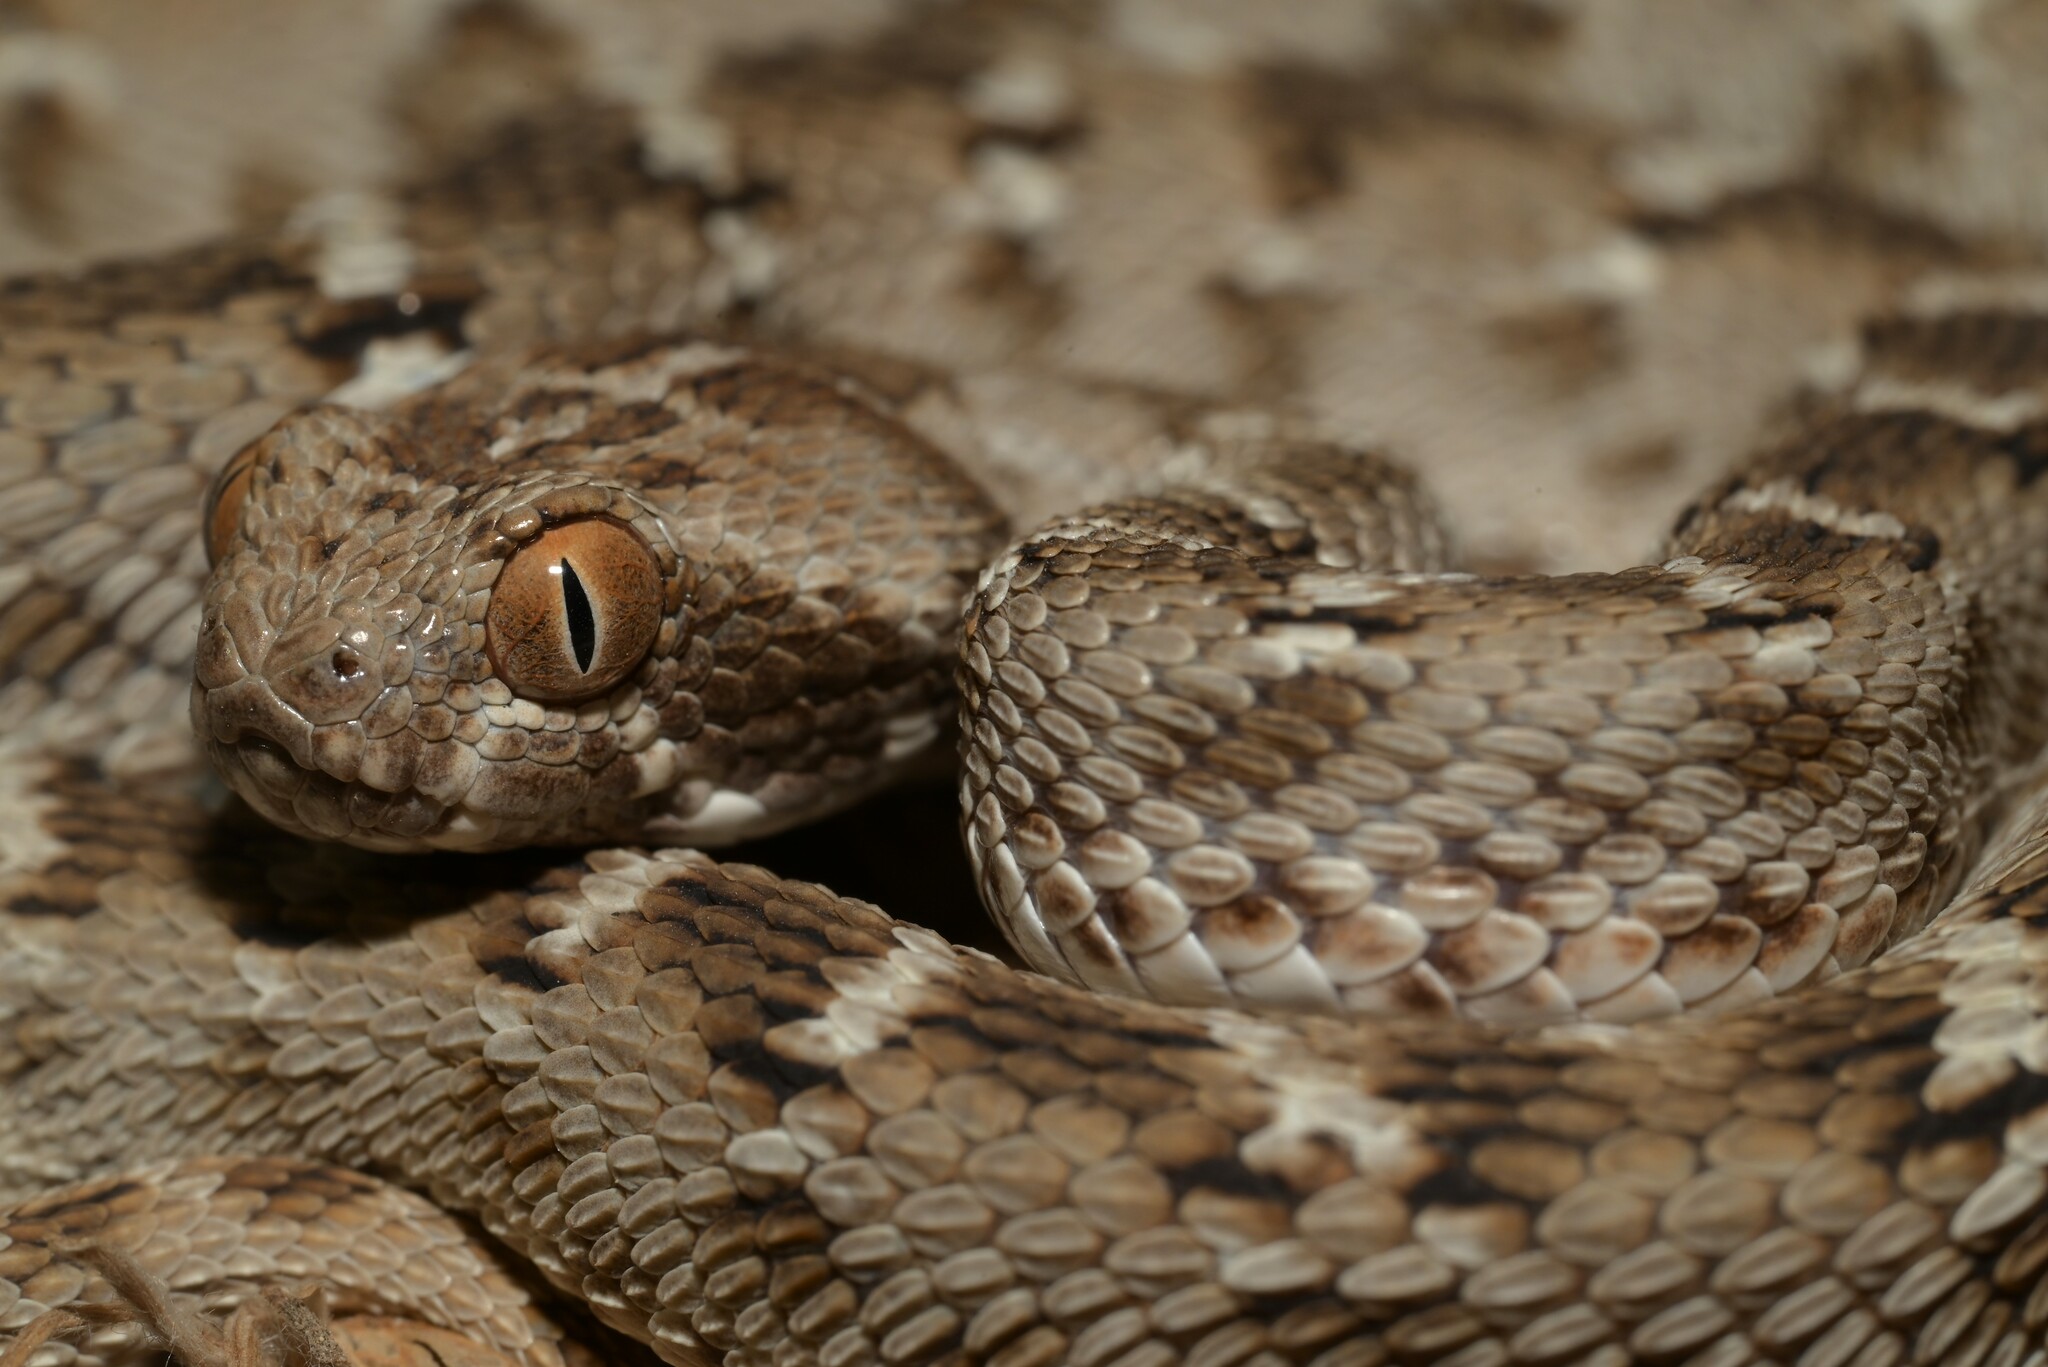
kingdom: Animalia
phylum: Chordata
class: Squamata
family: Viperidae
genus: Echis
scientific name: Echis carinatus
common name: Saw-scaled viper
